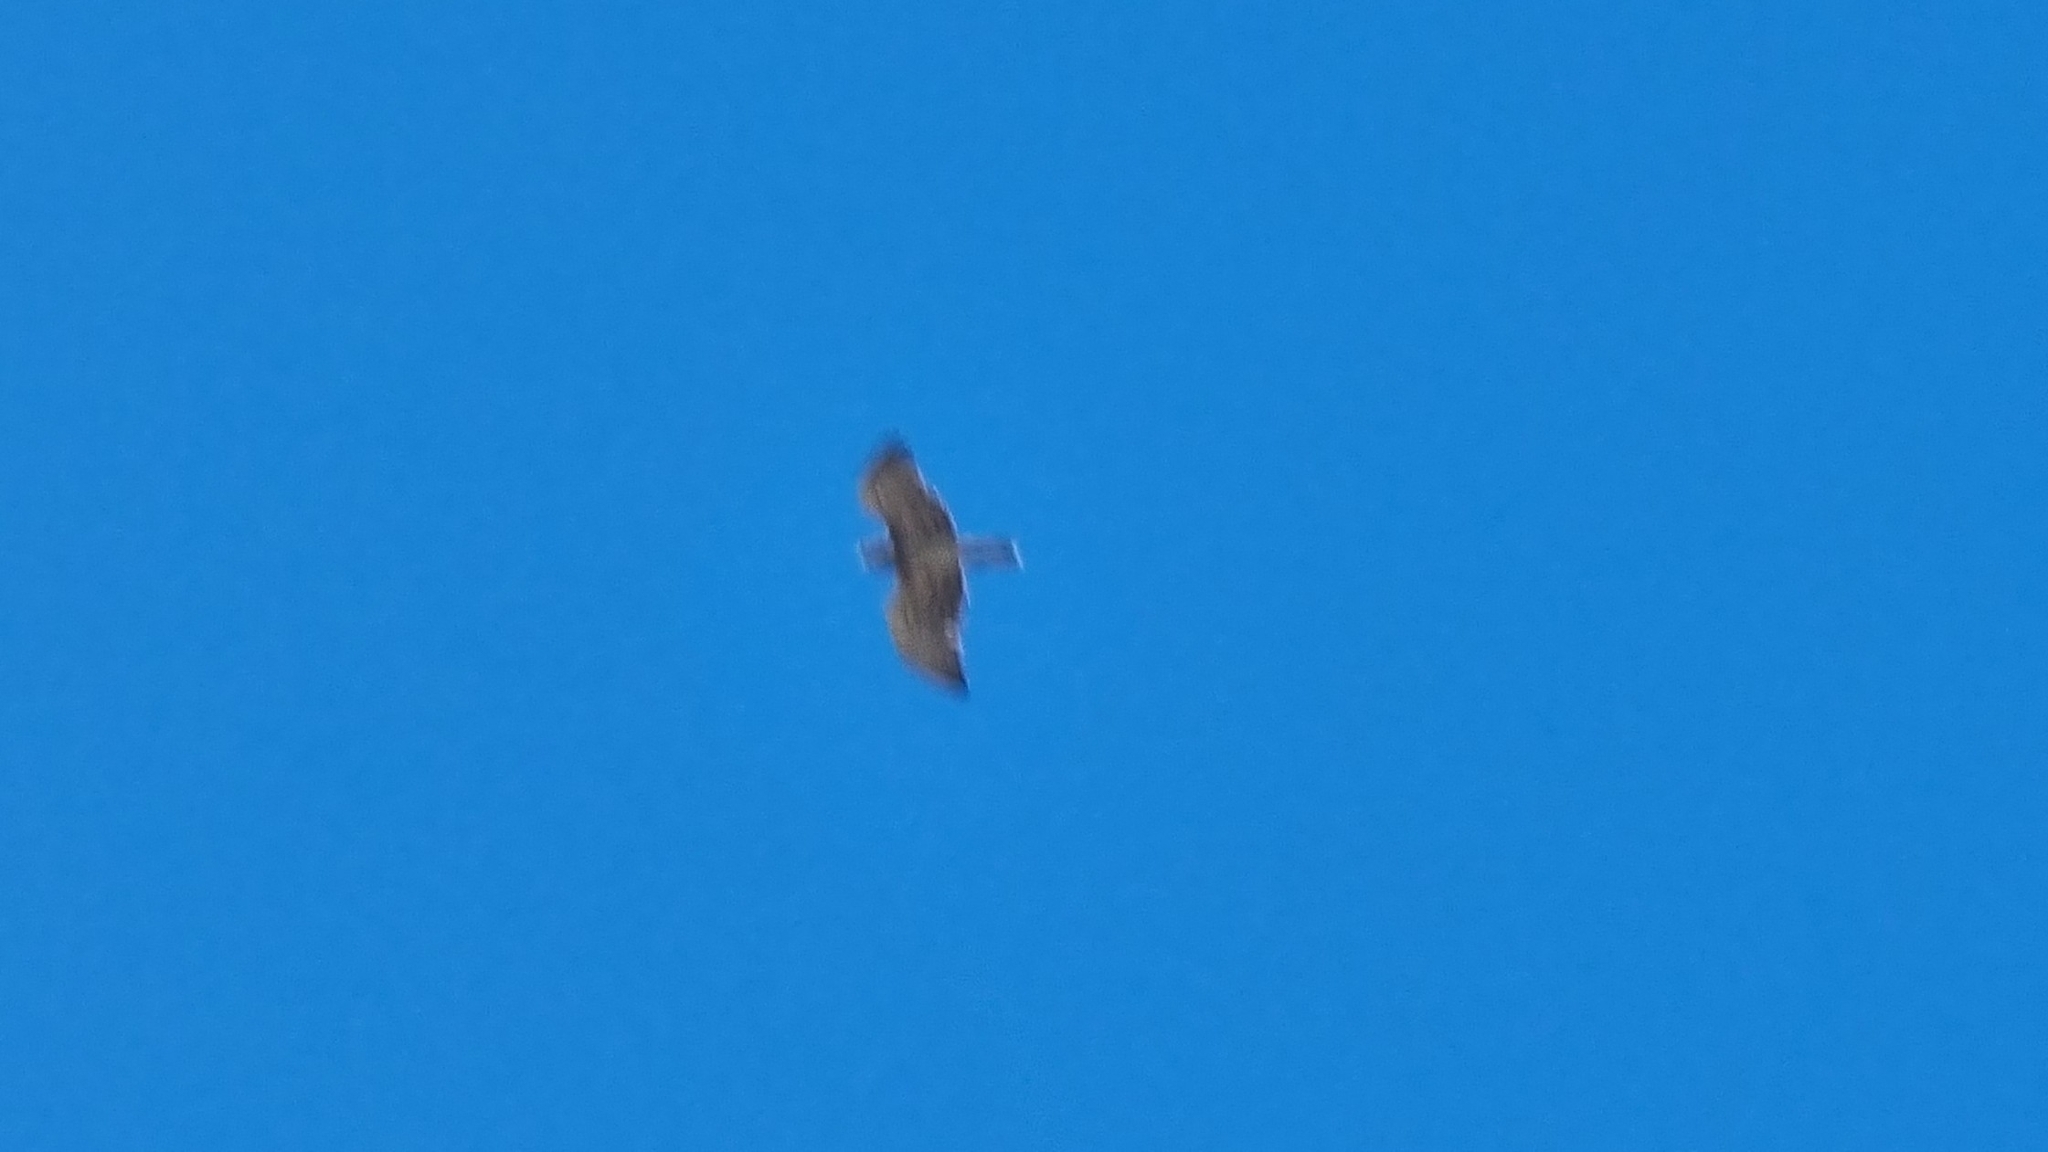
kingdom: Animalia
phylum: Chordata
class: Aves
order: Accipitriformes
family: Accipitridae
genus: Circaetus
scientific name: Circaetus gallicus
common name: Short-toed snake eagle
